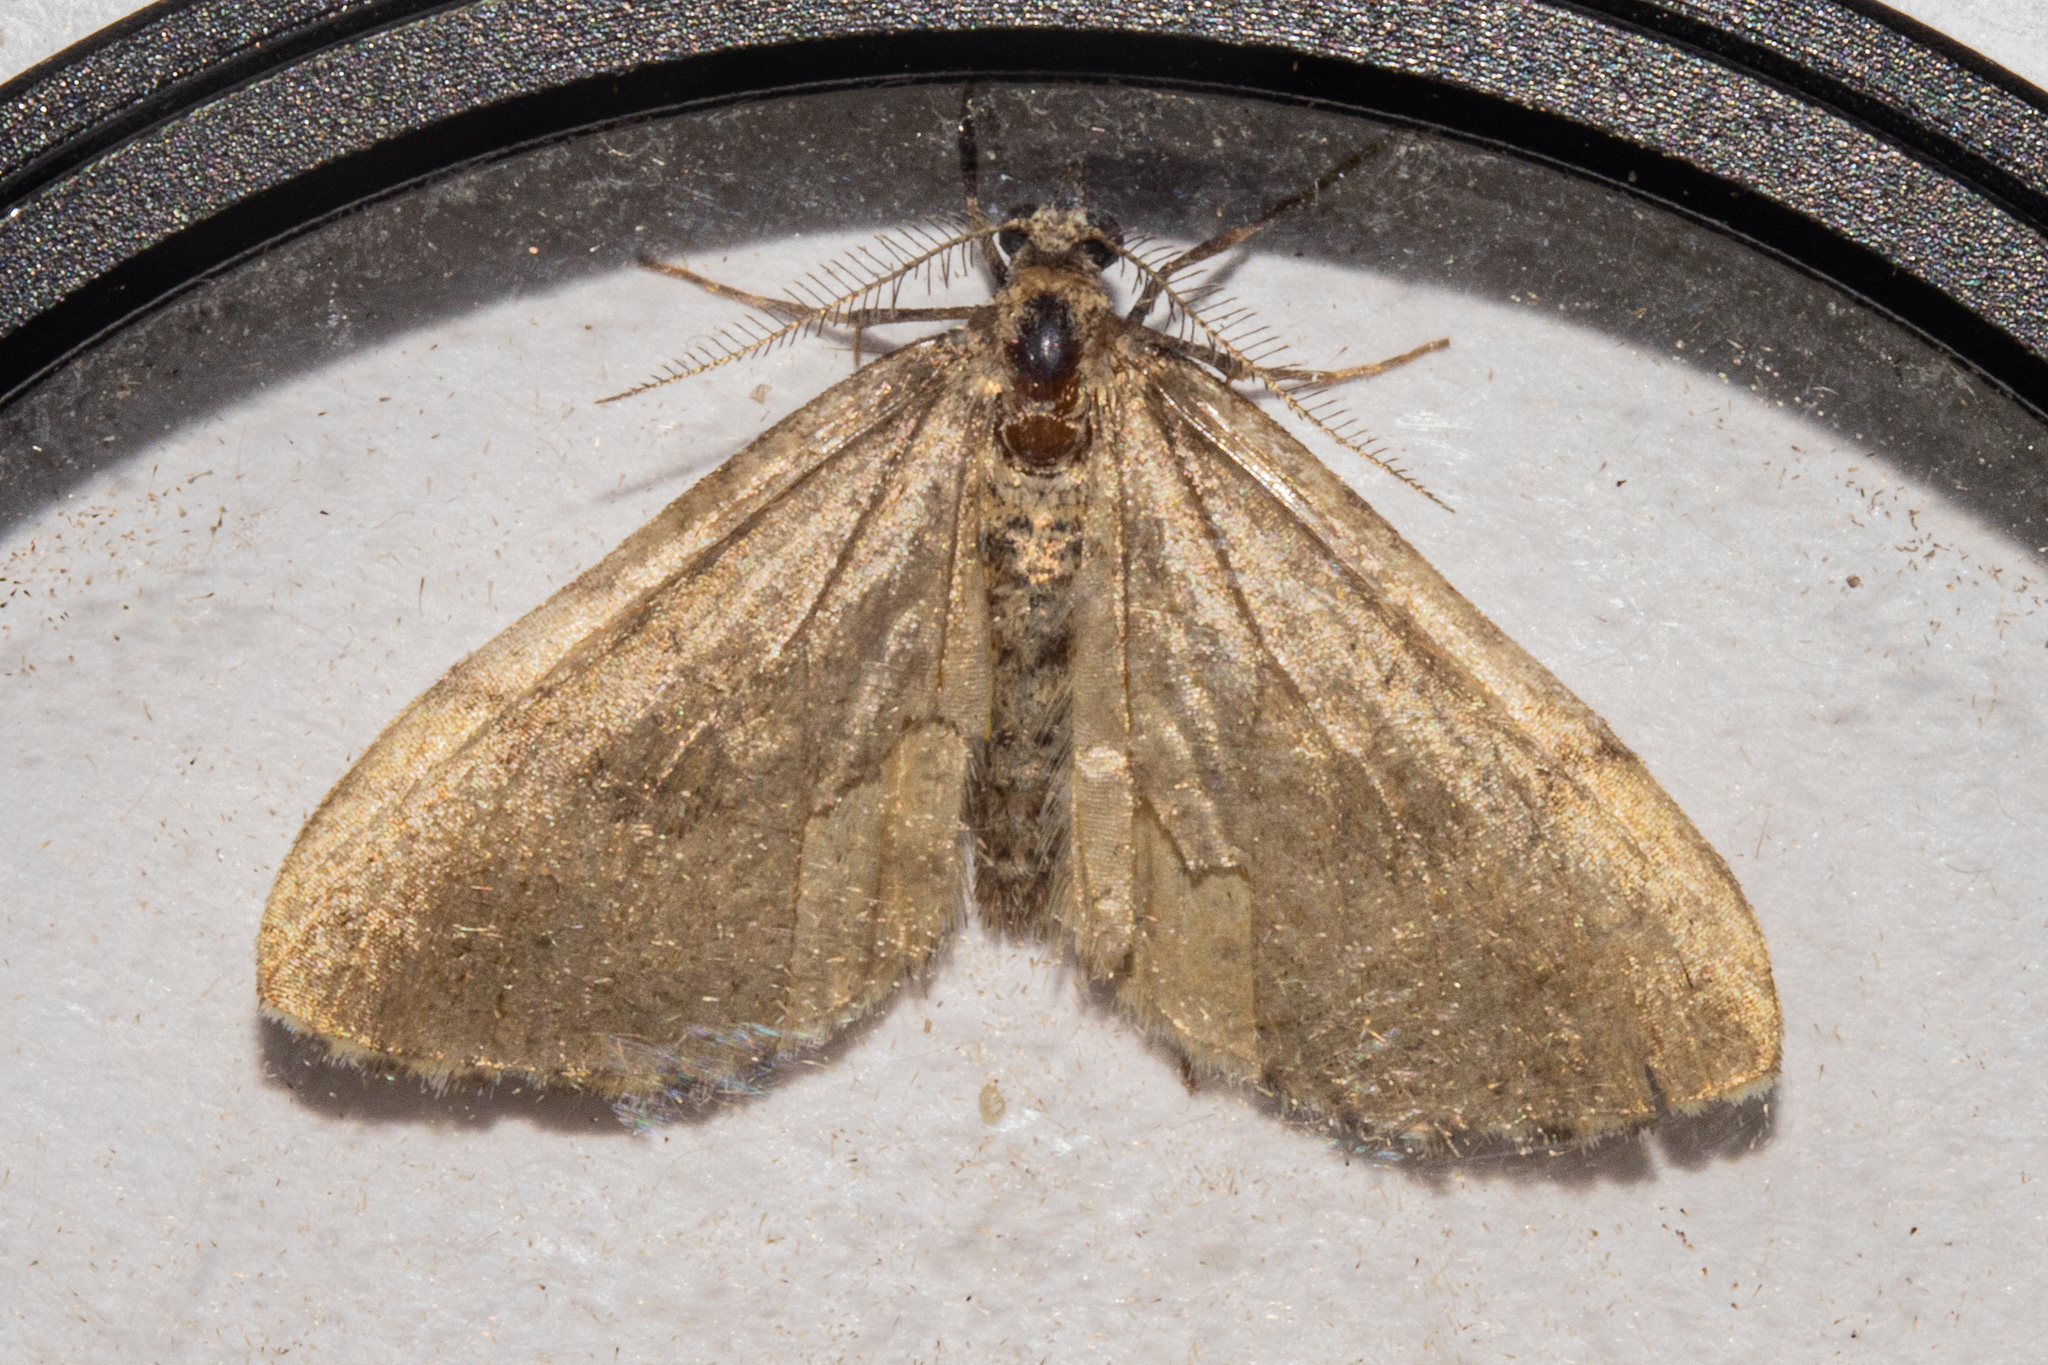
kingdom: Animalia
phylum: Arthropoda
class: Insecta
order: Lepidoptera
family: Geometridae
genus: Asaphodes
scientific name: Asaphodes aegrota
